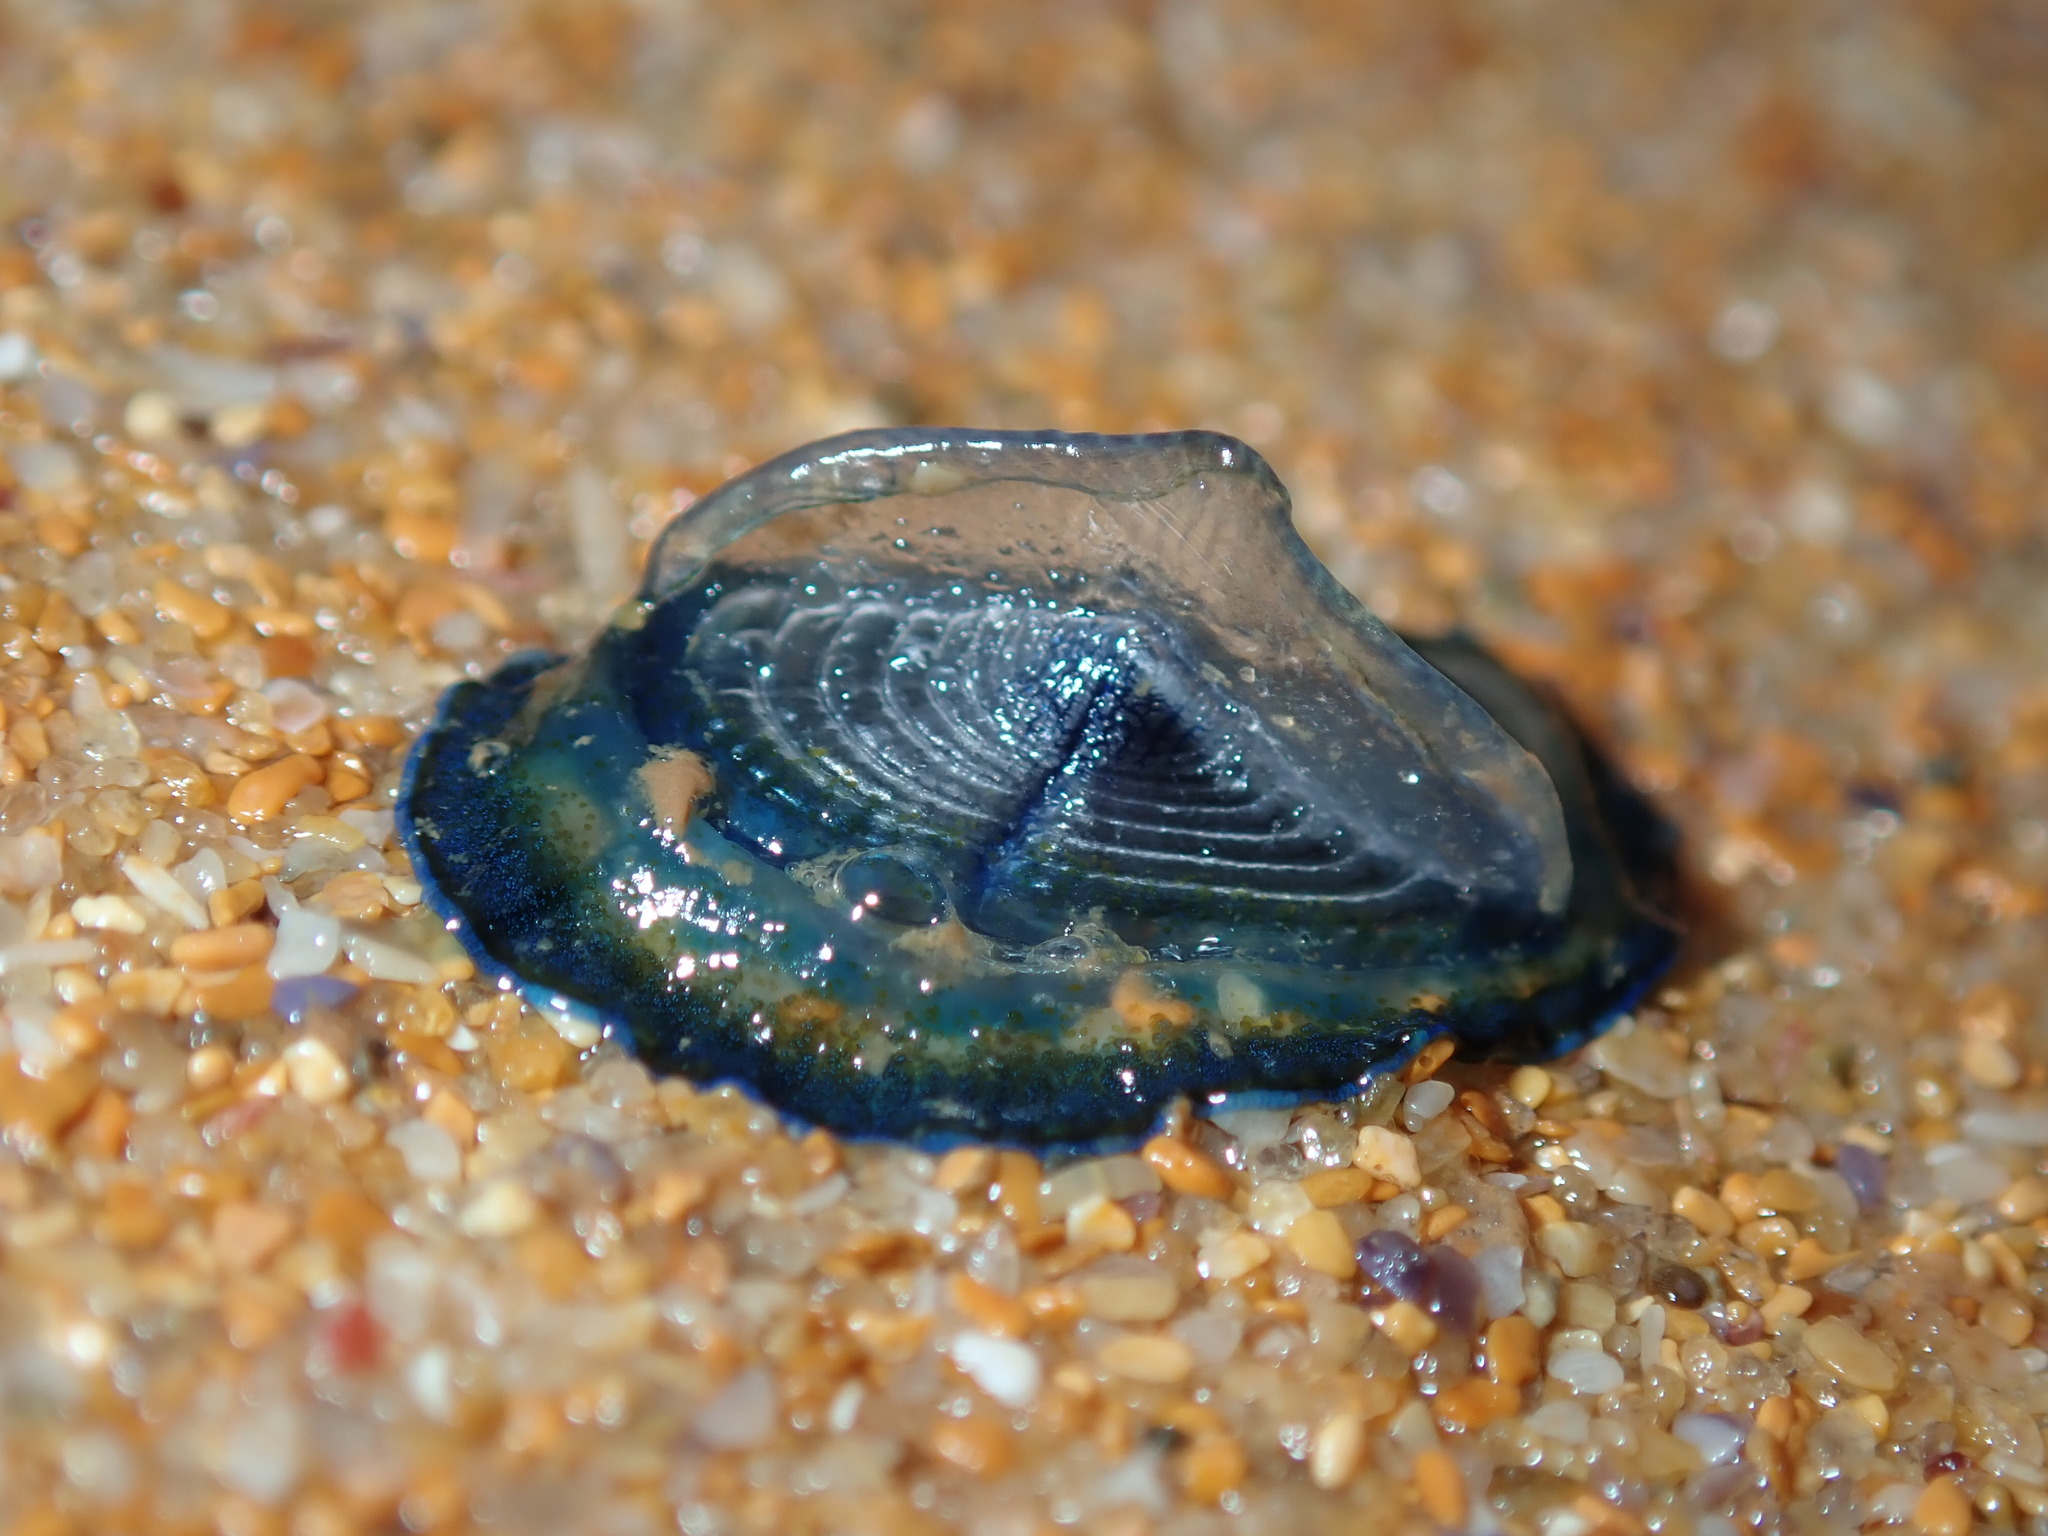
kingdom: Animalia
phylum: Cnidaria
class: Hydrozoa
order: Anthoathecata
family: Porpitidae
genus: Velella
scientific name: Velella velella
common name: By-the-wind-sailor
